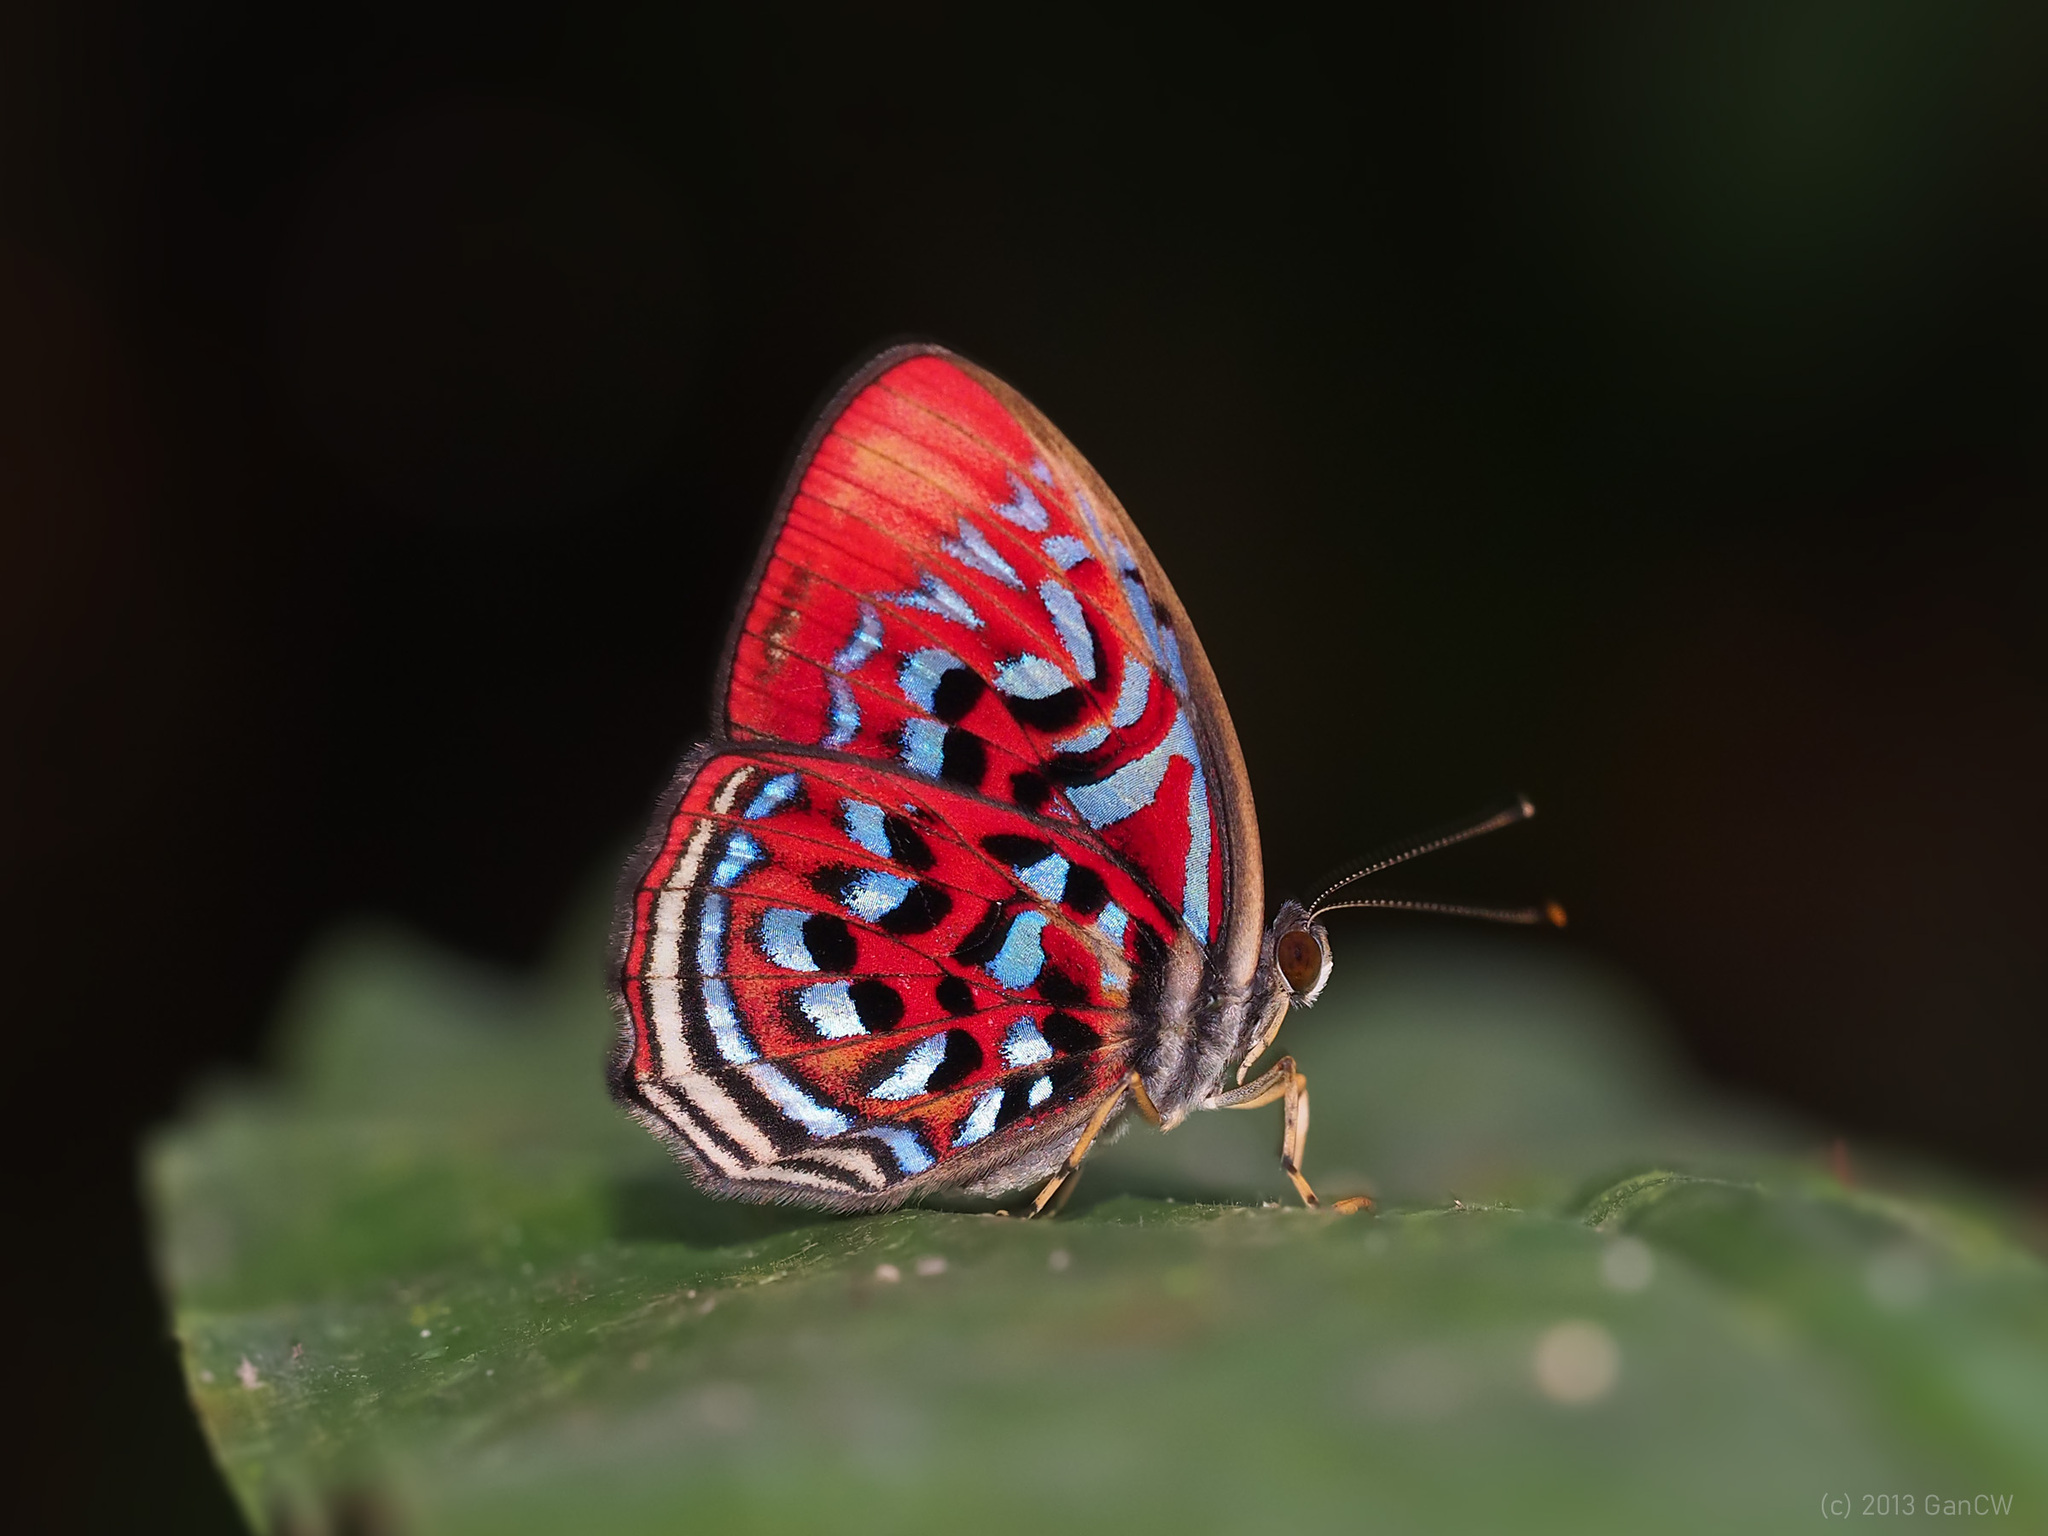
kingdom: Animalia
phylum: Arthropoda
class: Insecta
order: Lepidoptera
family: Riodinidae
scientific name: Riodinidae
